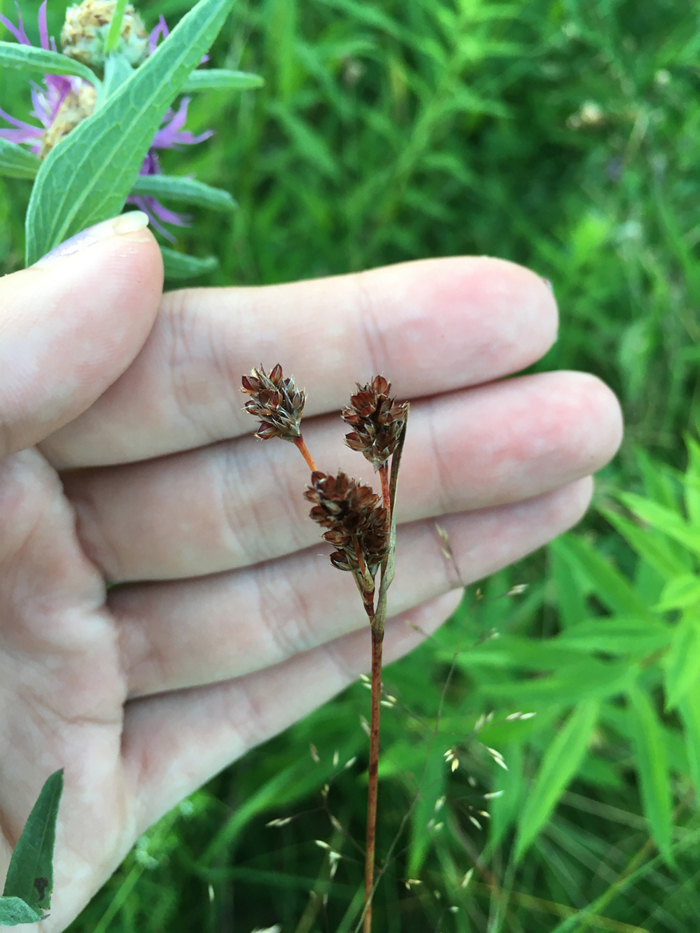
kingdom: Plantae
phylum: Tracheophyta
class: Liliopsida
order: Poales
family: Juncaceae
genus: Luzula
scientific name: Luzula multiflora
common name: Heath wood-rush
